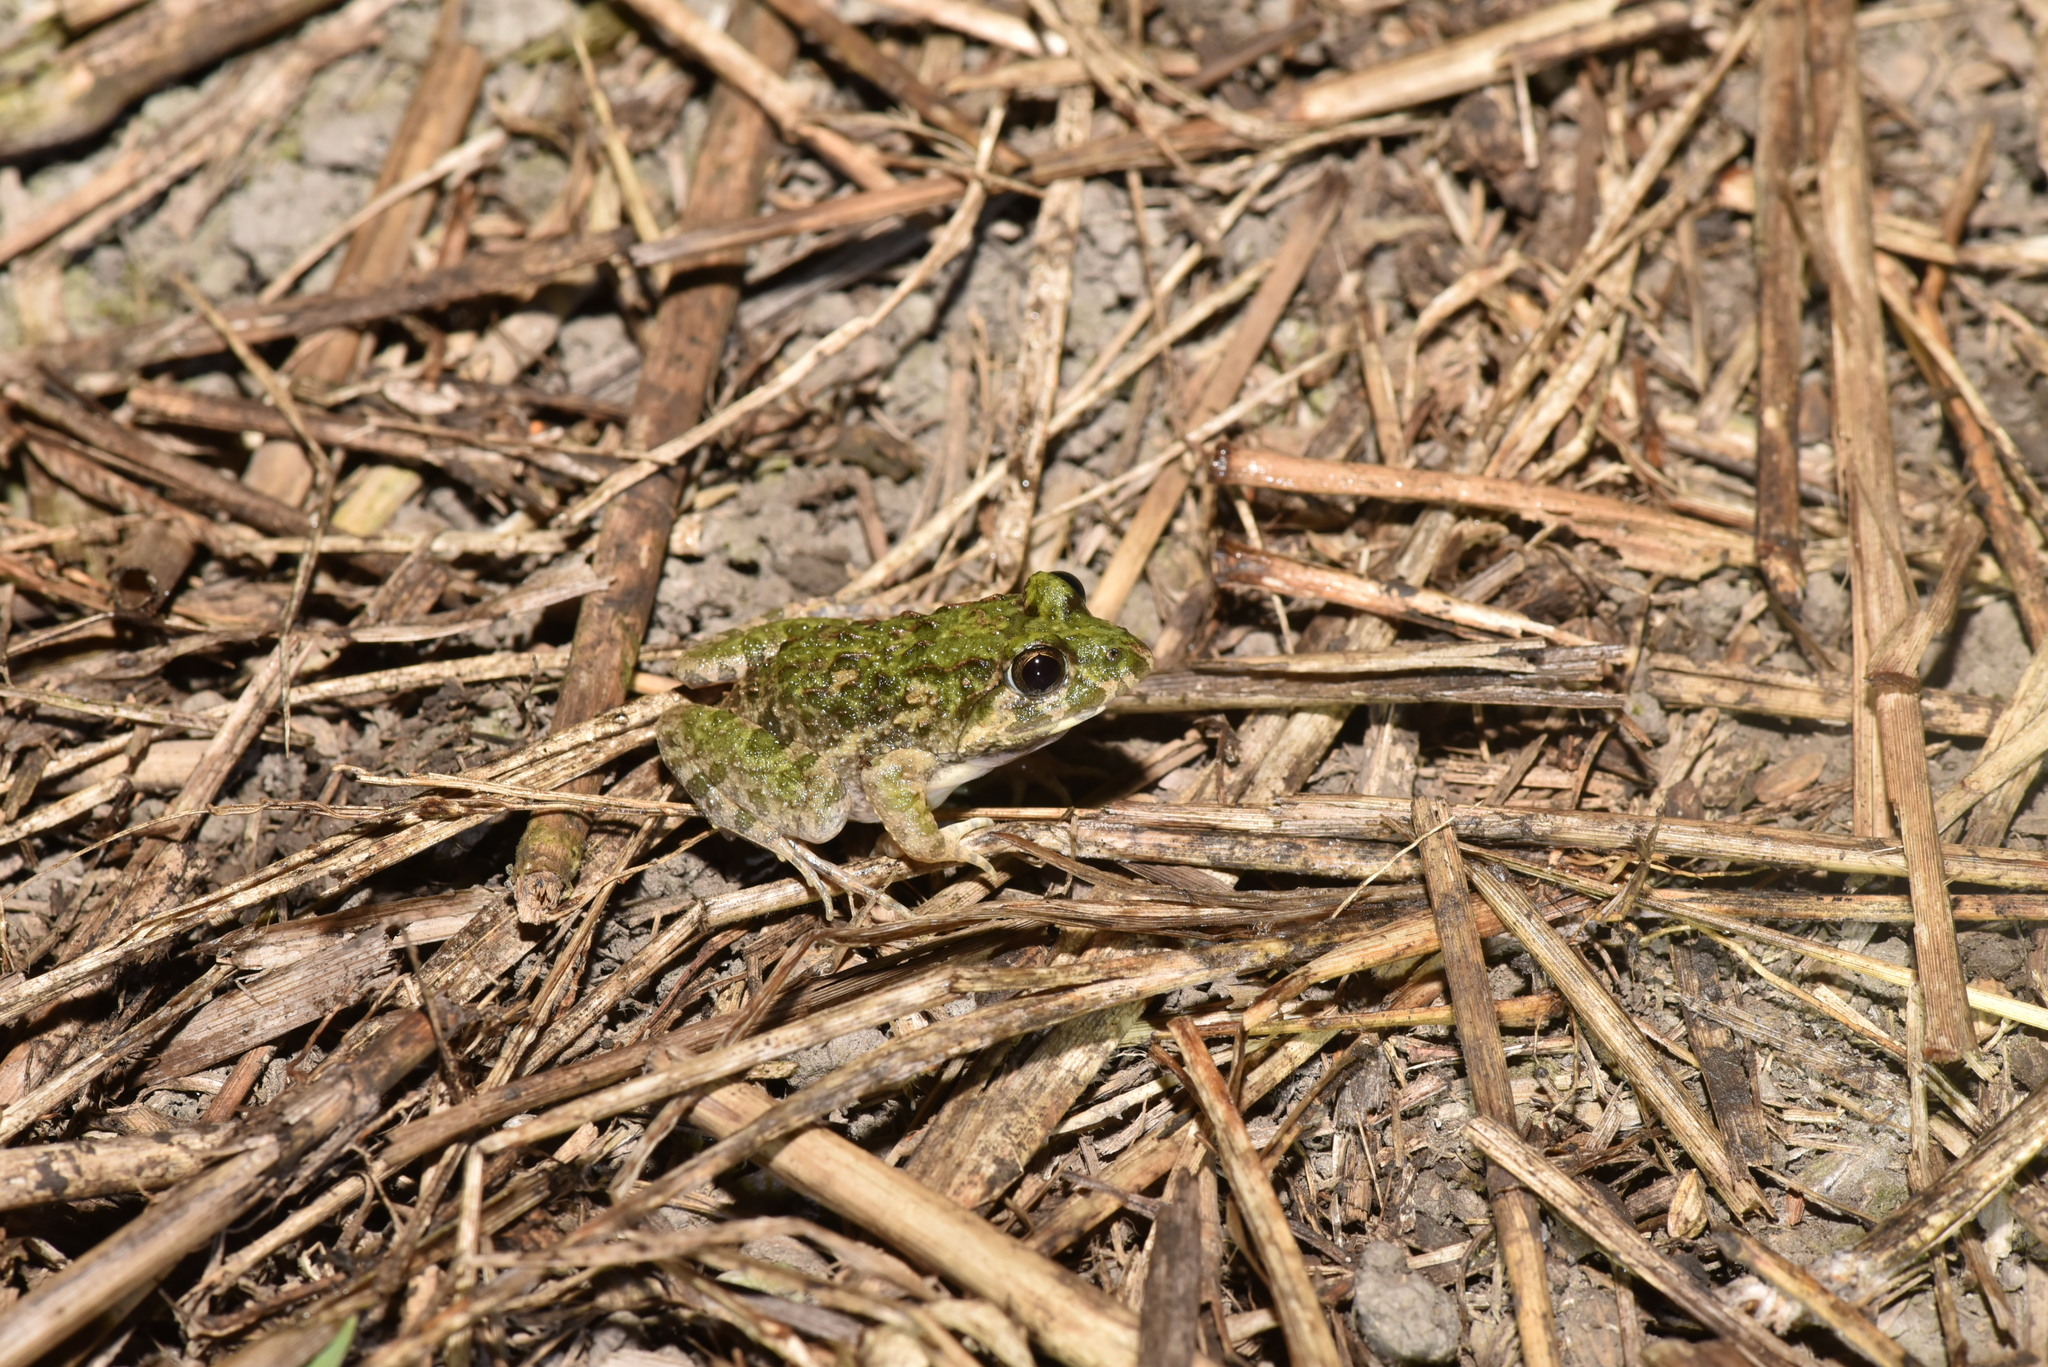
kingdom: Animalia
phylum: Chordata
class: Amphibia
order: Anura
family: Dicroglossidae
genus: Fejervarya
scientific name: Fejervarya limnocharis
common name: Asian grass frog/common pond frog/field frog/grass frog/indian rice frog
